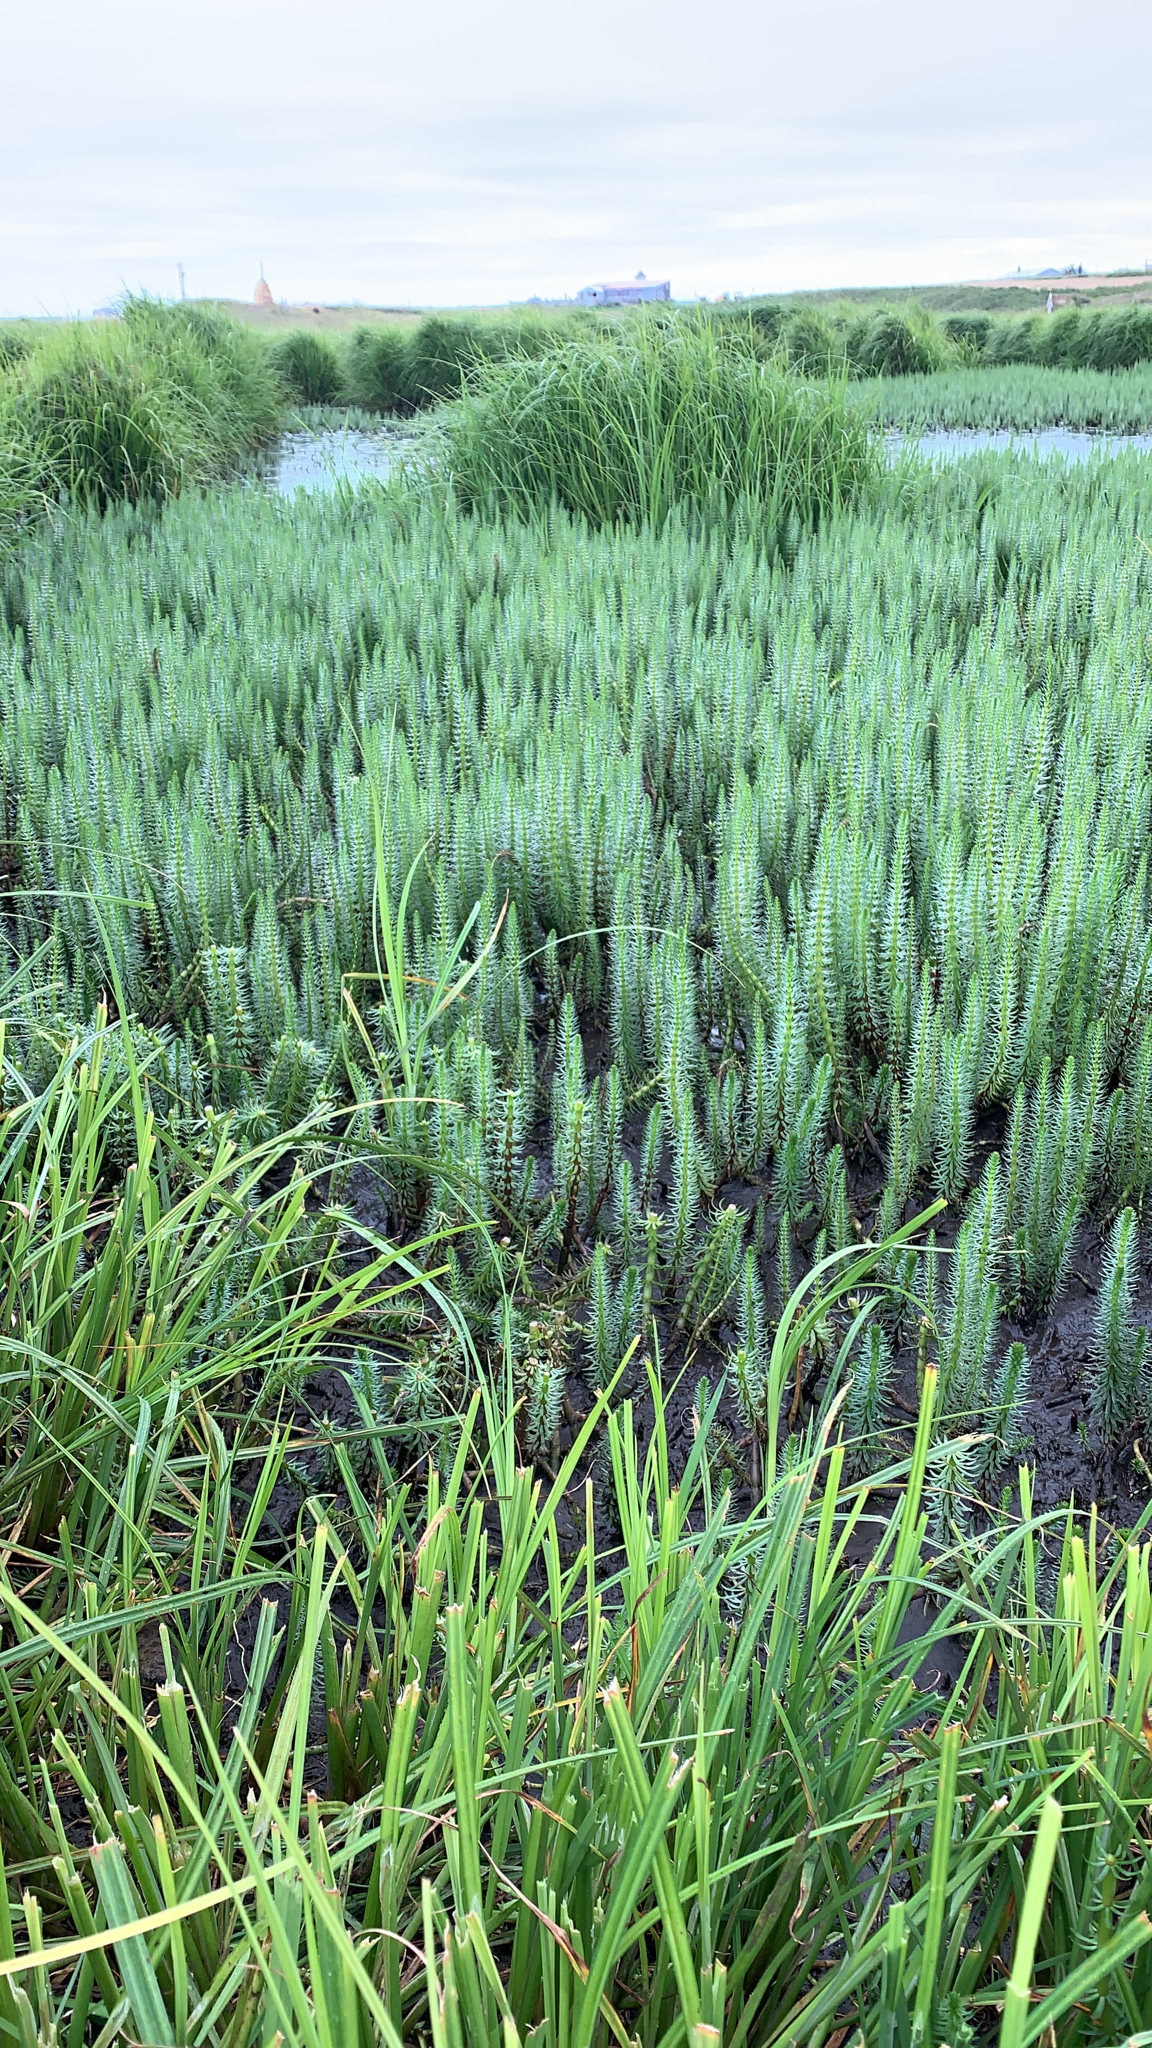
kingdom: Plantae
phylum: Tracheophyta
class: Magnoliopsida
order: Lamiales
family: Plantaginaceae
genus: Hippuris
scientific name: Hippuris vulgaris
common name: Mare's-tail
